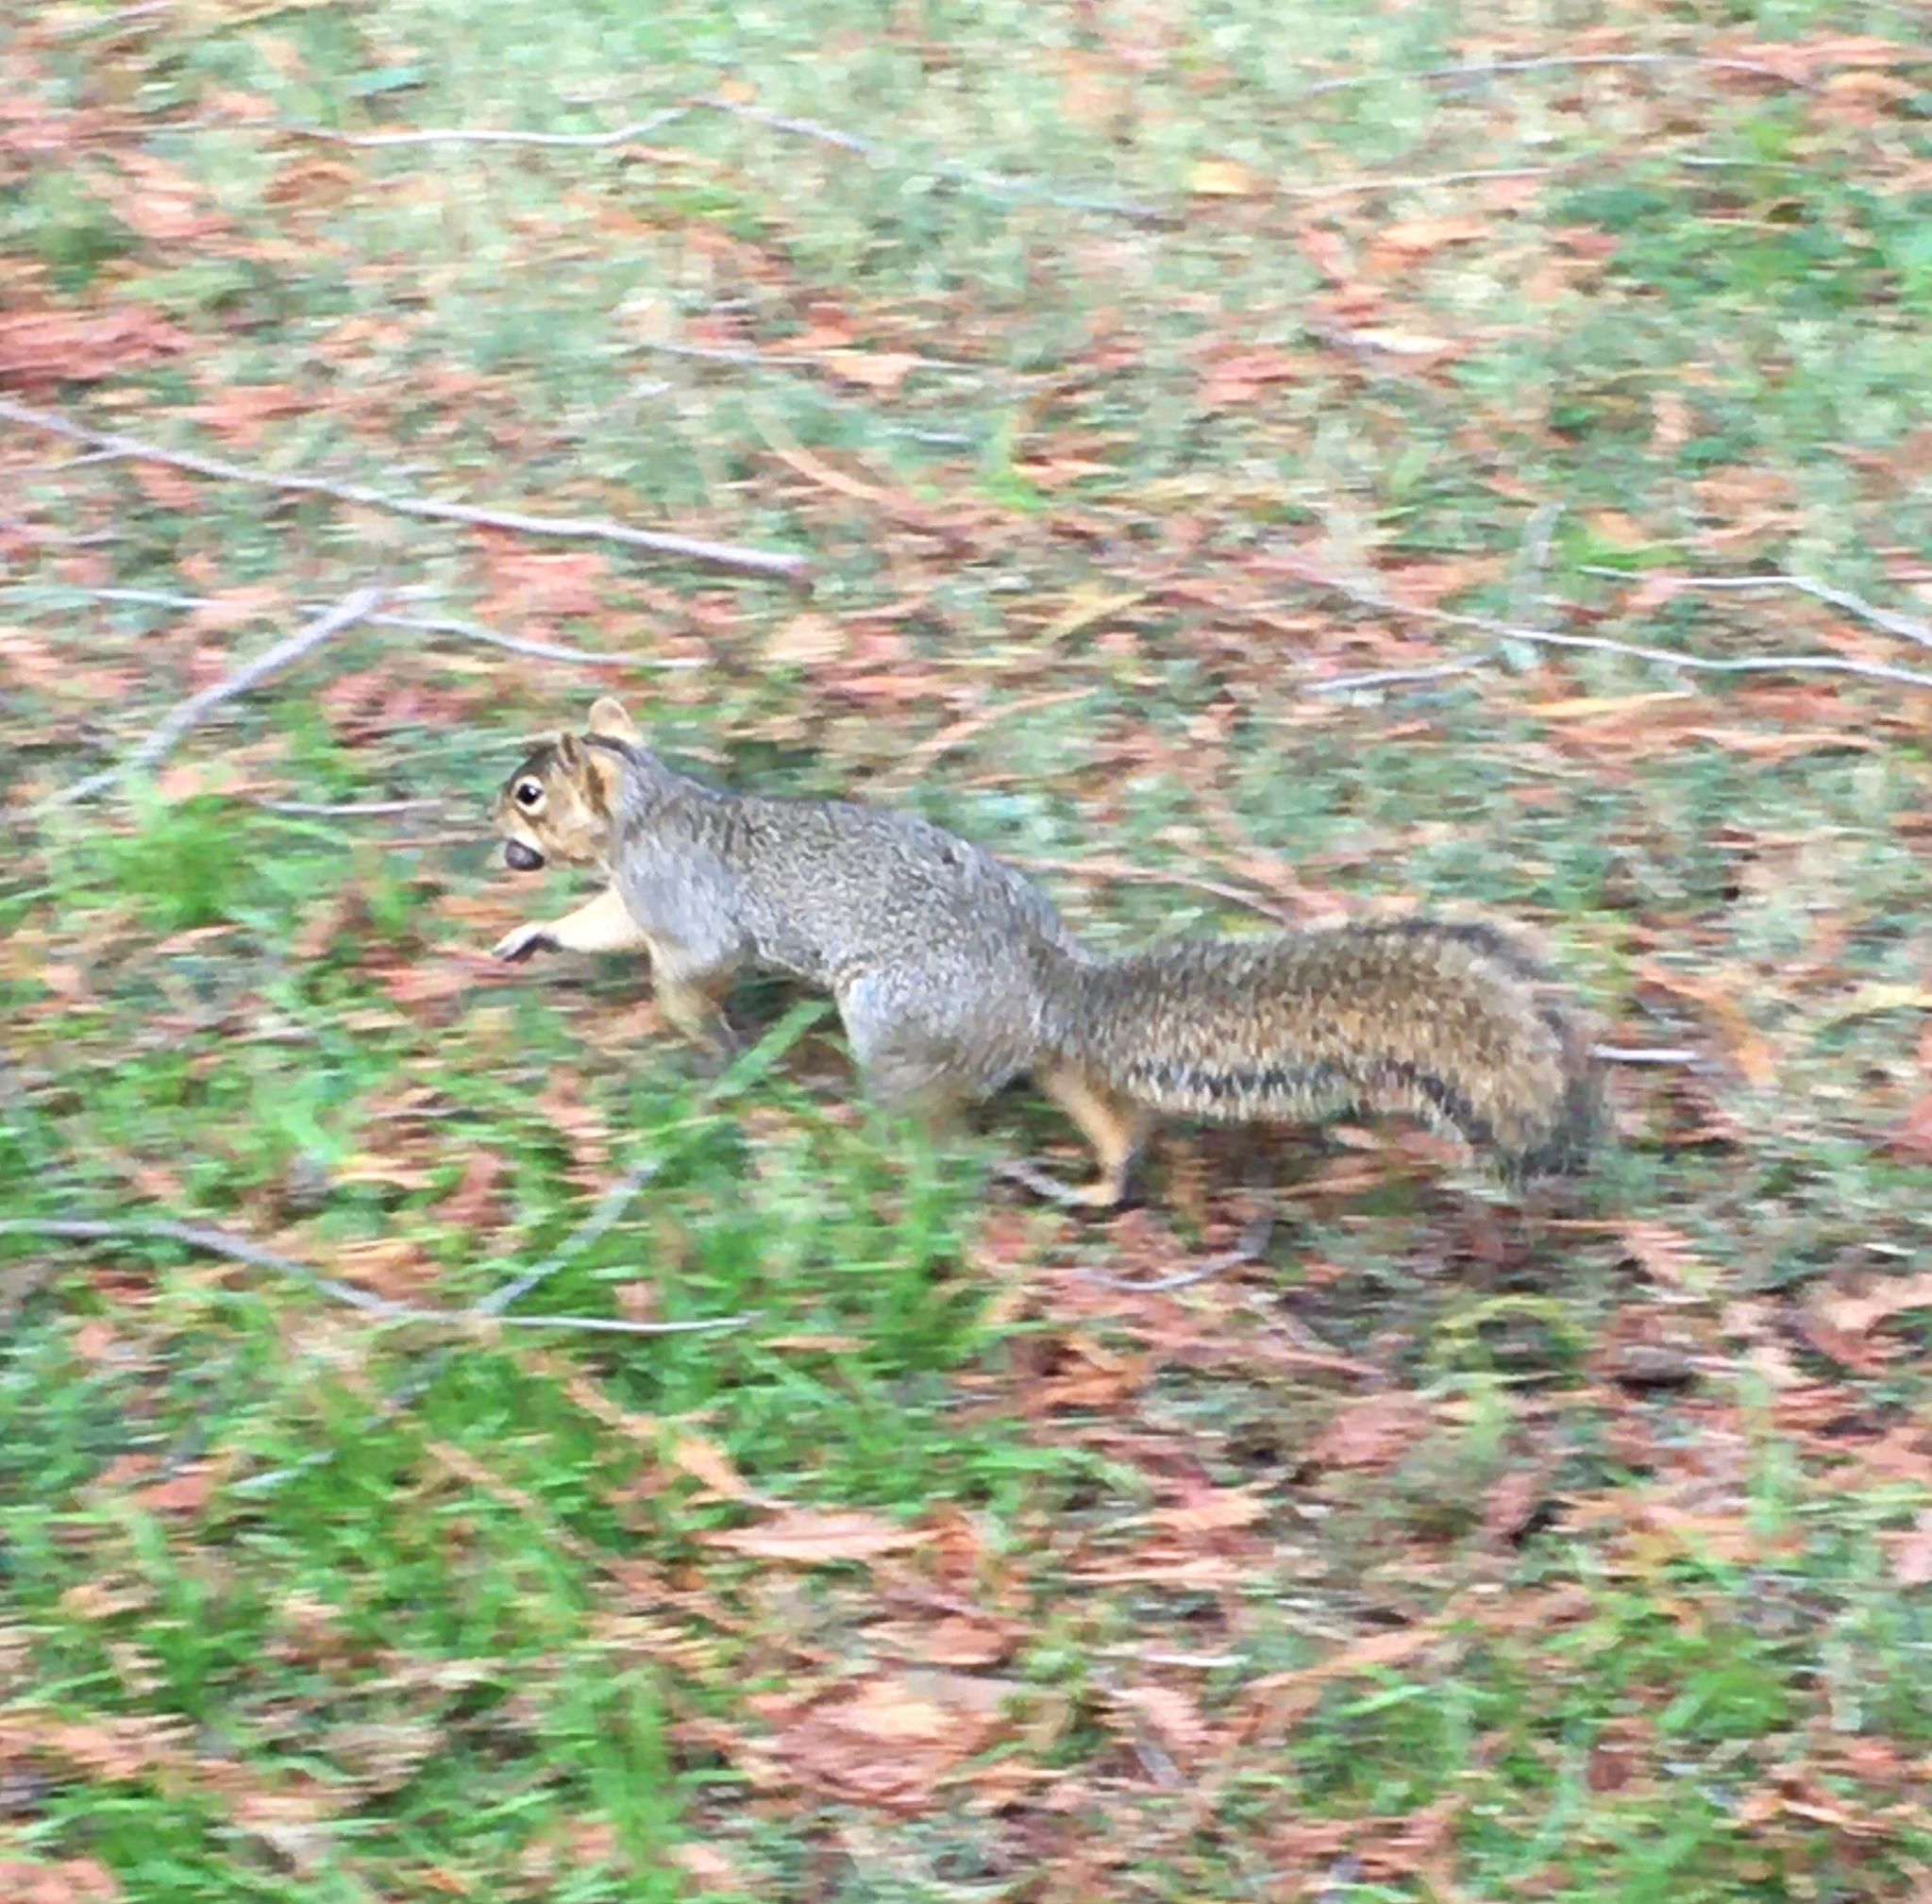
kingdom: Animalia
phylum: Chordata
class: Mammalia
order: Rodentia
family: Sciuridae
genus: Sciurus
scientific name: Sciurus niger
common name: Fox squirrel
